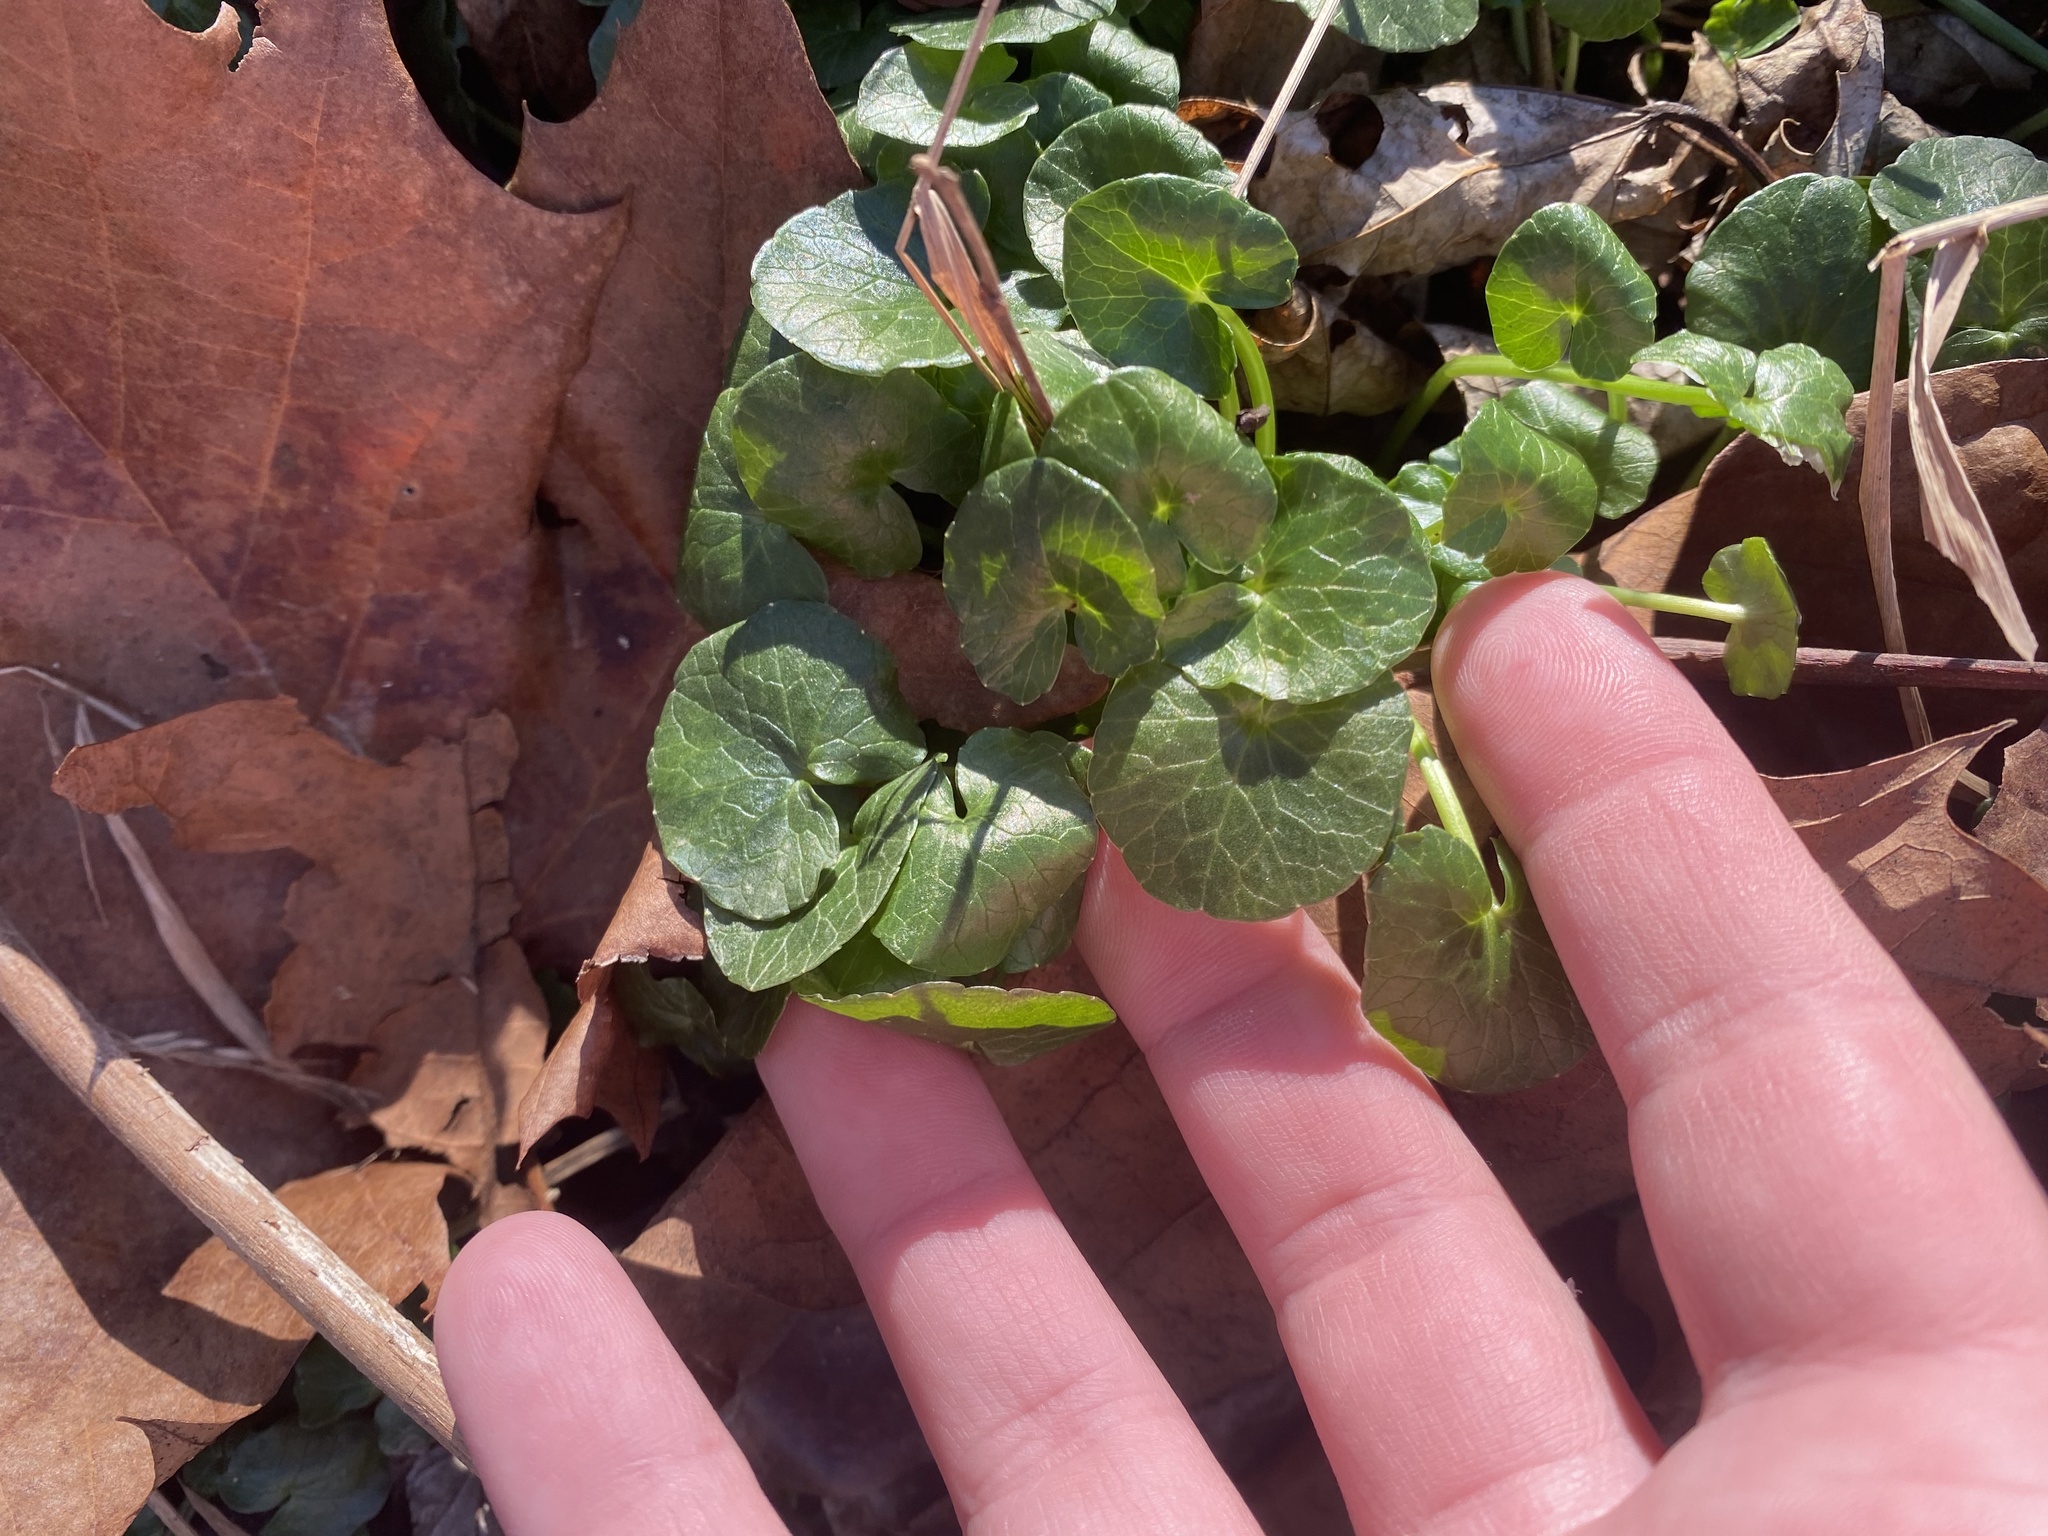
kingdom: Plantae
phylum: Tracheophyta
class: Magnoliopsida
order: Ranunculales
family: Ranunculaceae
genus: Ficaria
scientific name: Ficaria verna
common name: Lesser celandine
